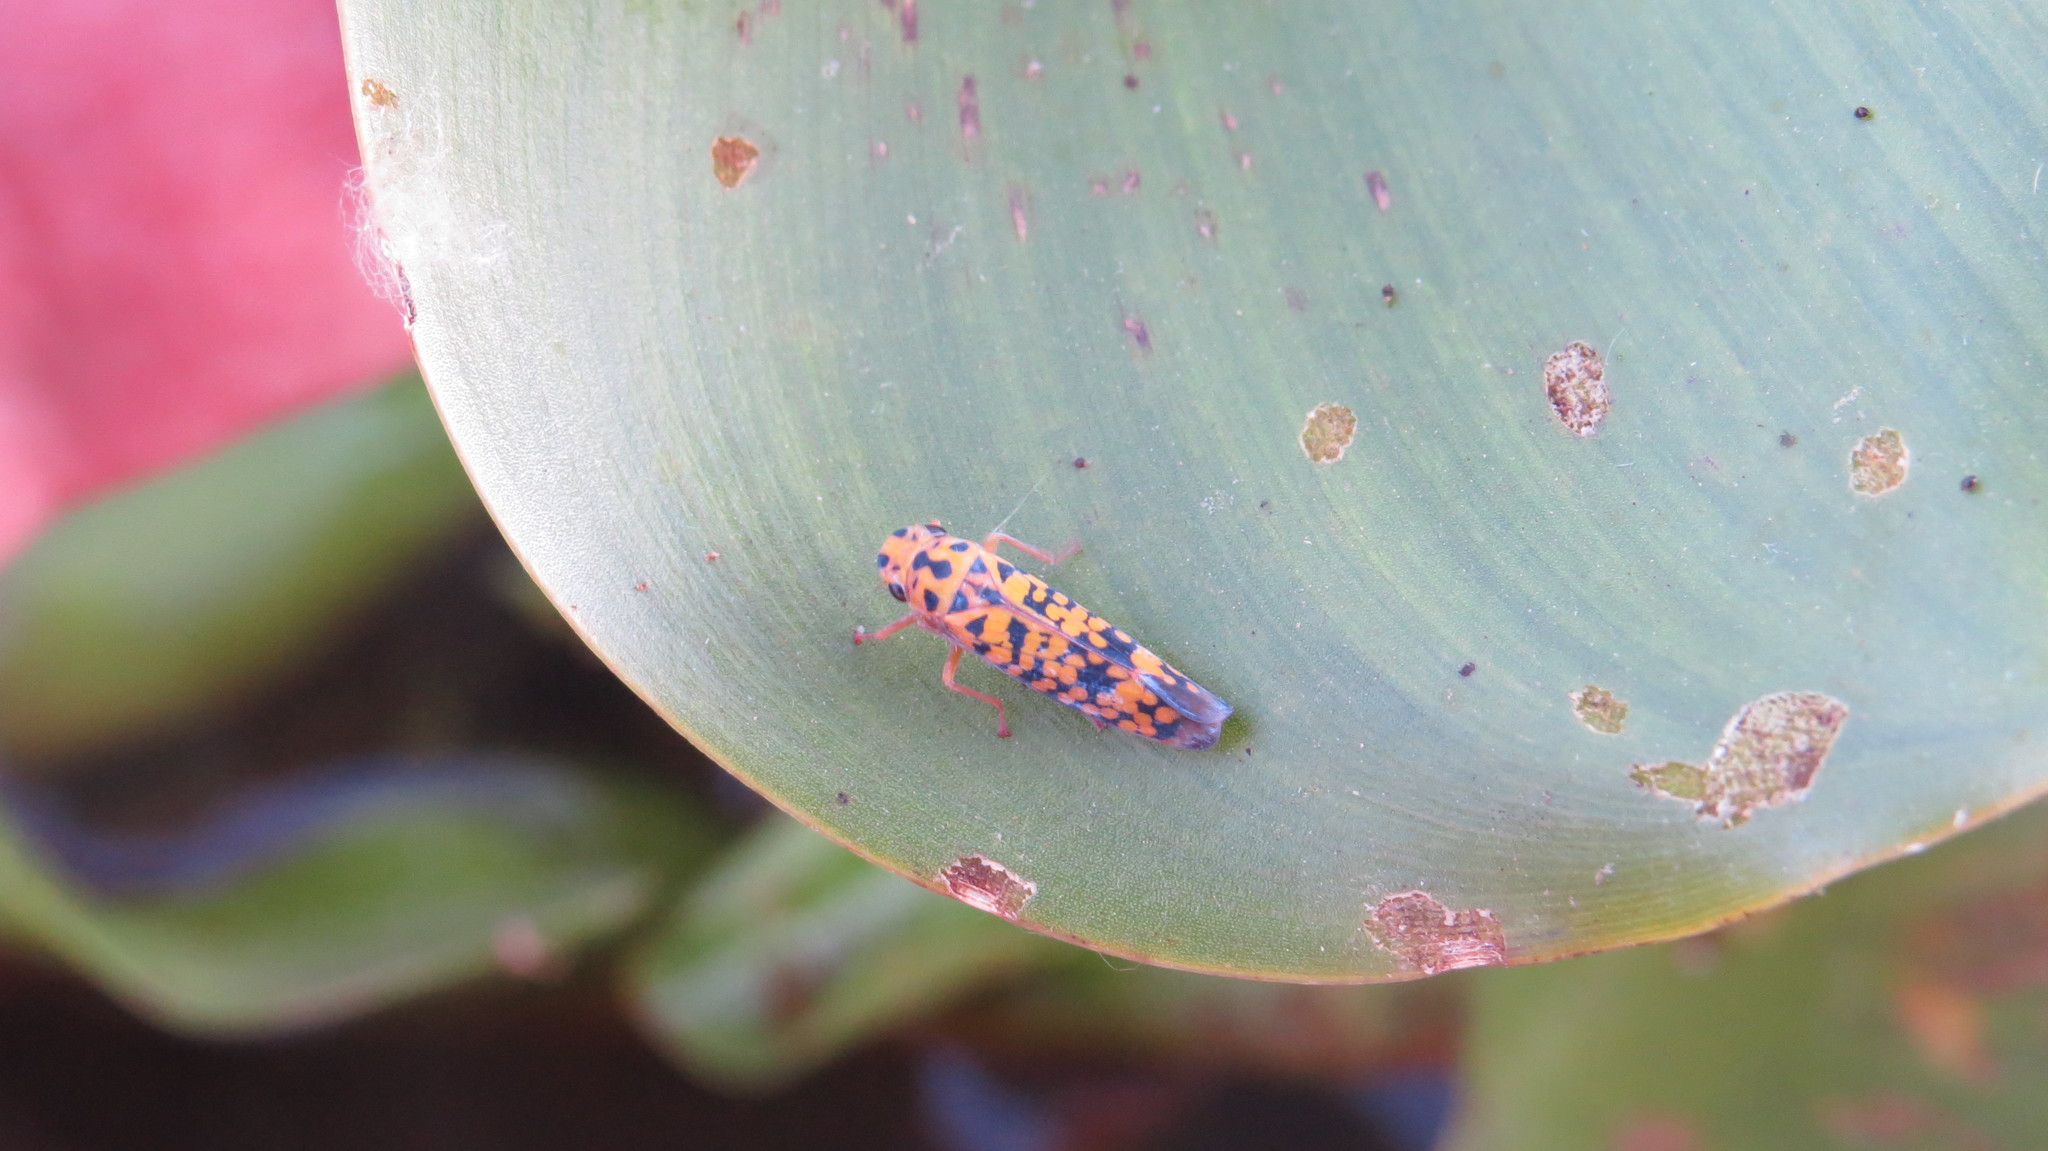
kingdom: Animalia
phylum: Arthropoda
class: Insecta
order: Hemiptera
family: Cicadellidae
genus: Pawiloma
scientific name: Pawiloma victima
